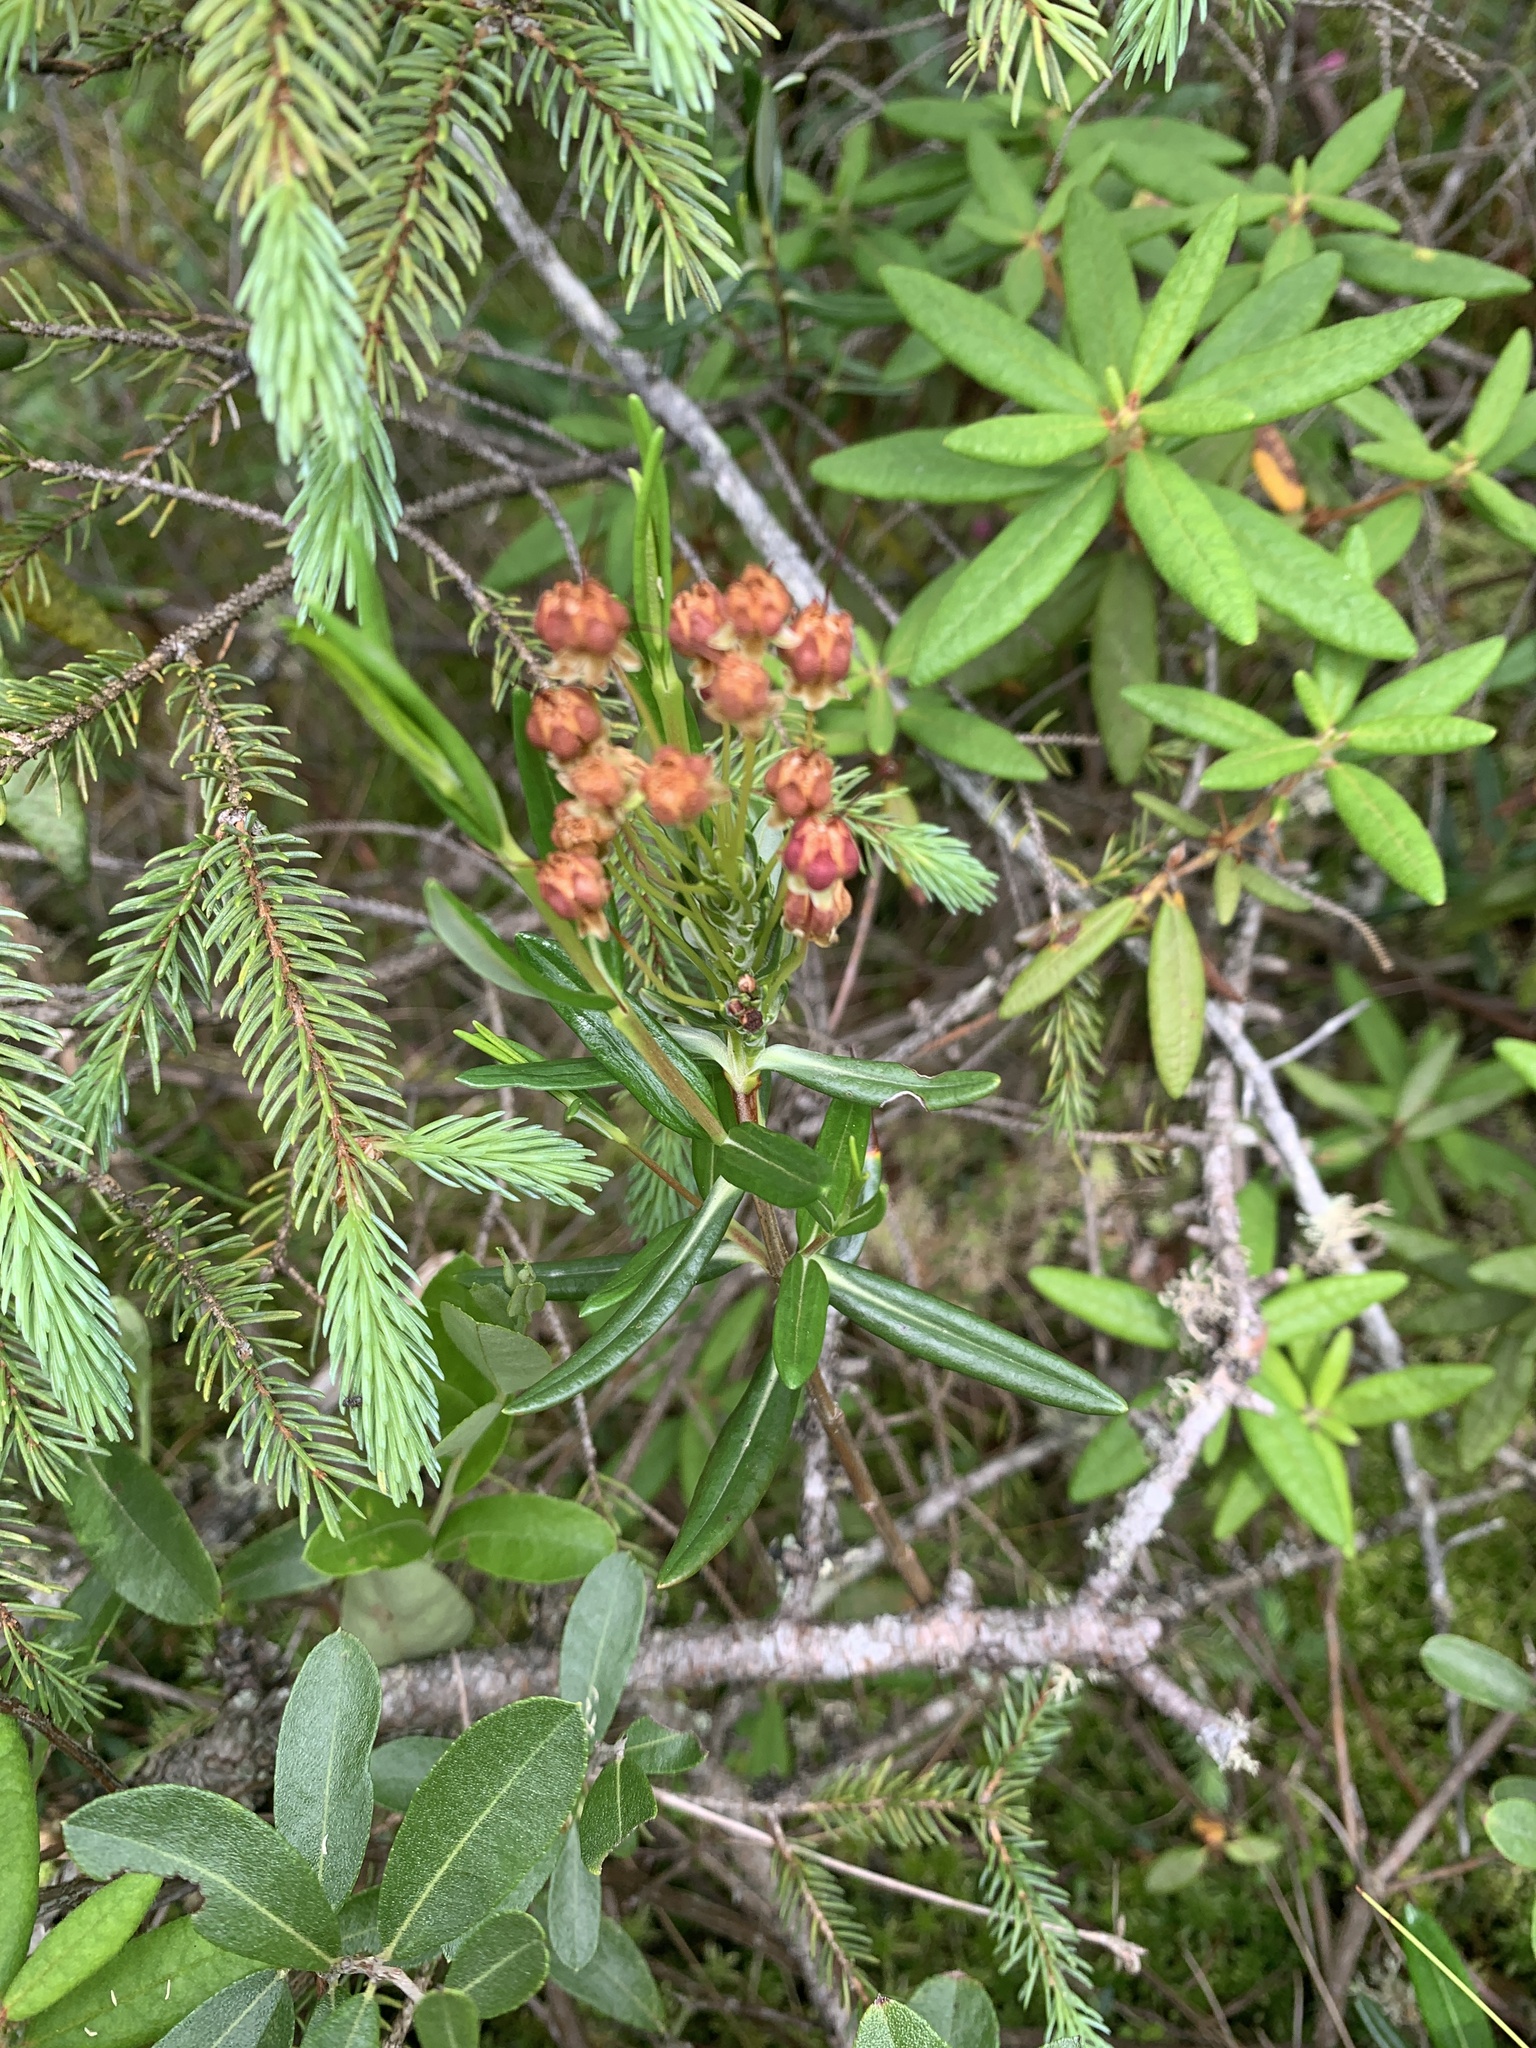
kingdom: Plantae
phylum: Tracheophyta
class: Magnoliopsida
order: Ericales
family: Ericaceae
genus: Kalmia
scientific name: Kalmia polifolia
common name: Bog-laurel
